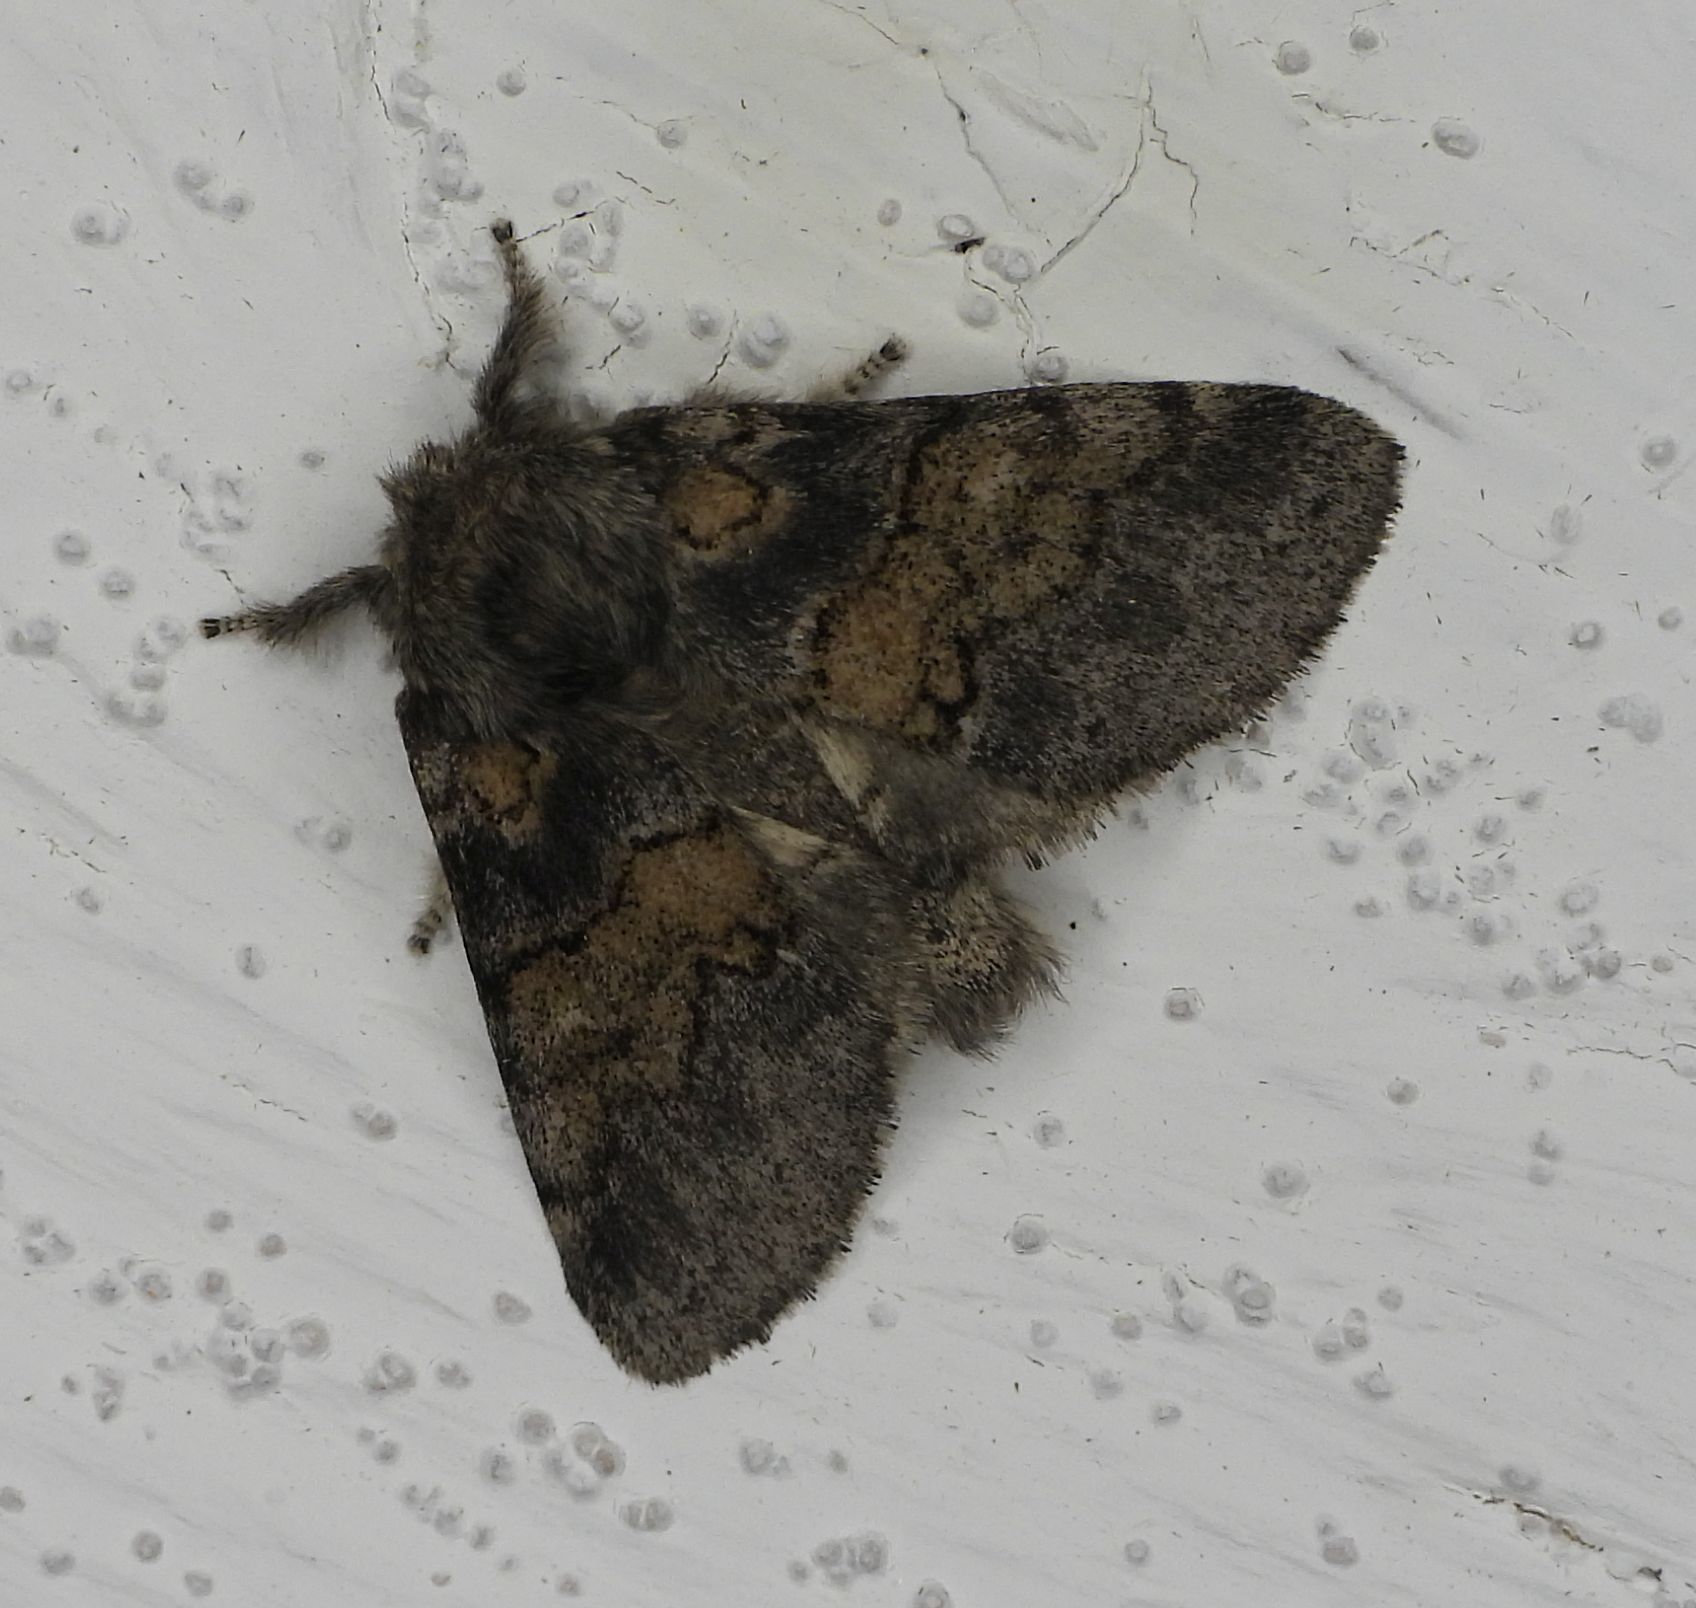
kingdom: Animalia
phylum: Arthropoda
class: Insecta
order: Lepidoptera
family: Notodontidae
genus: Gluphisia
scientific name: Gluphisia septentrionis
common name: Common gluphisia
